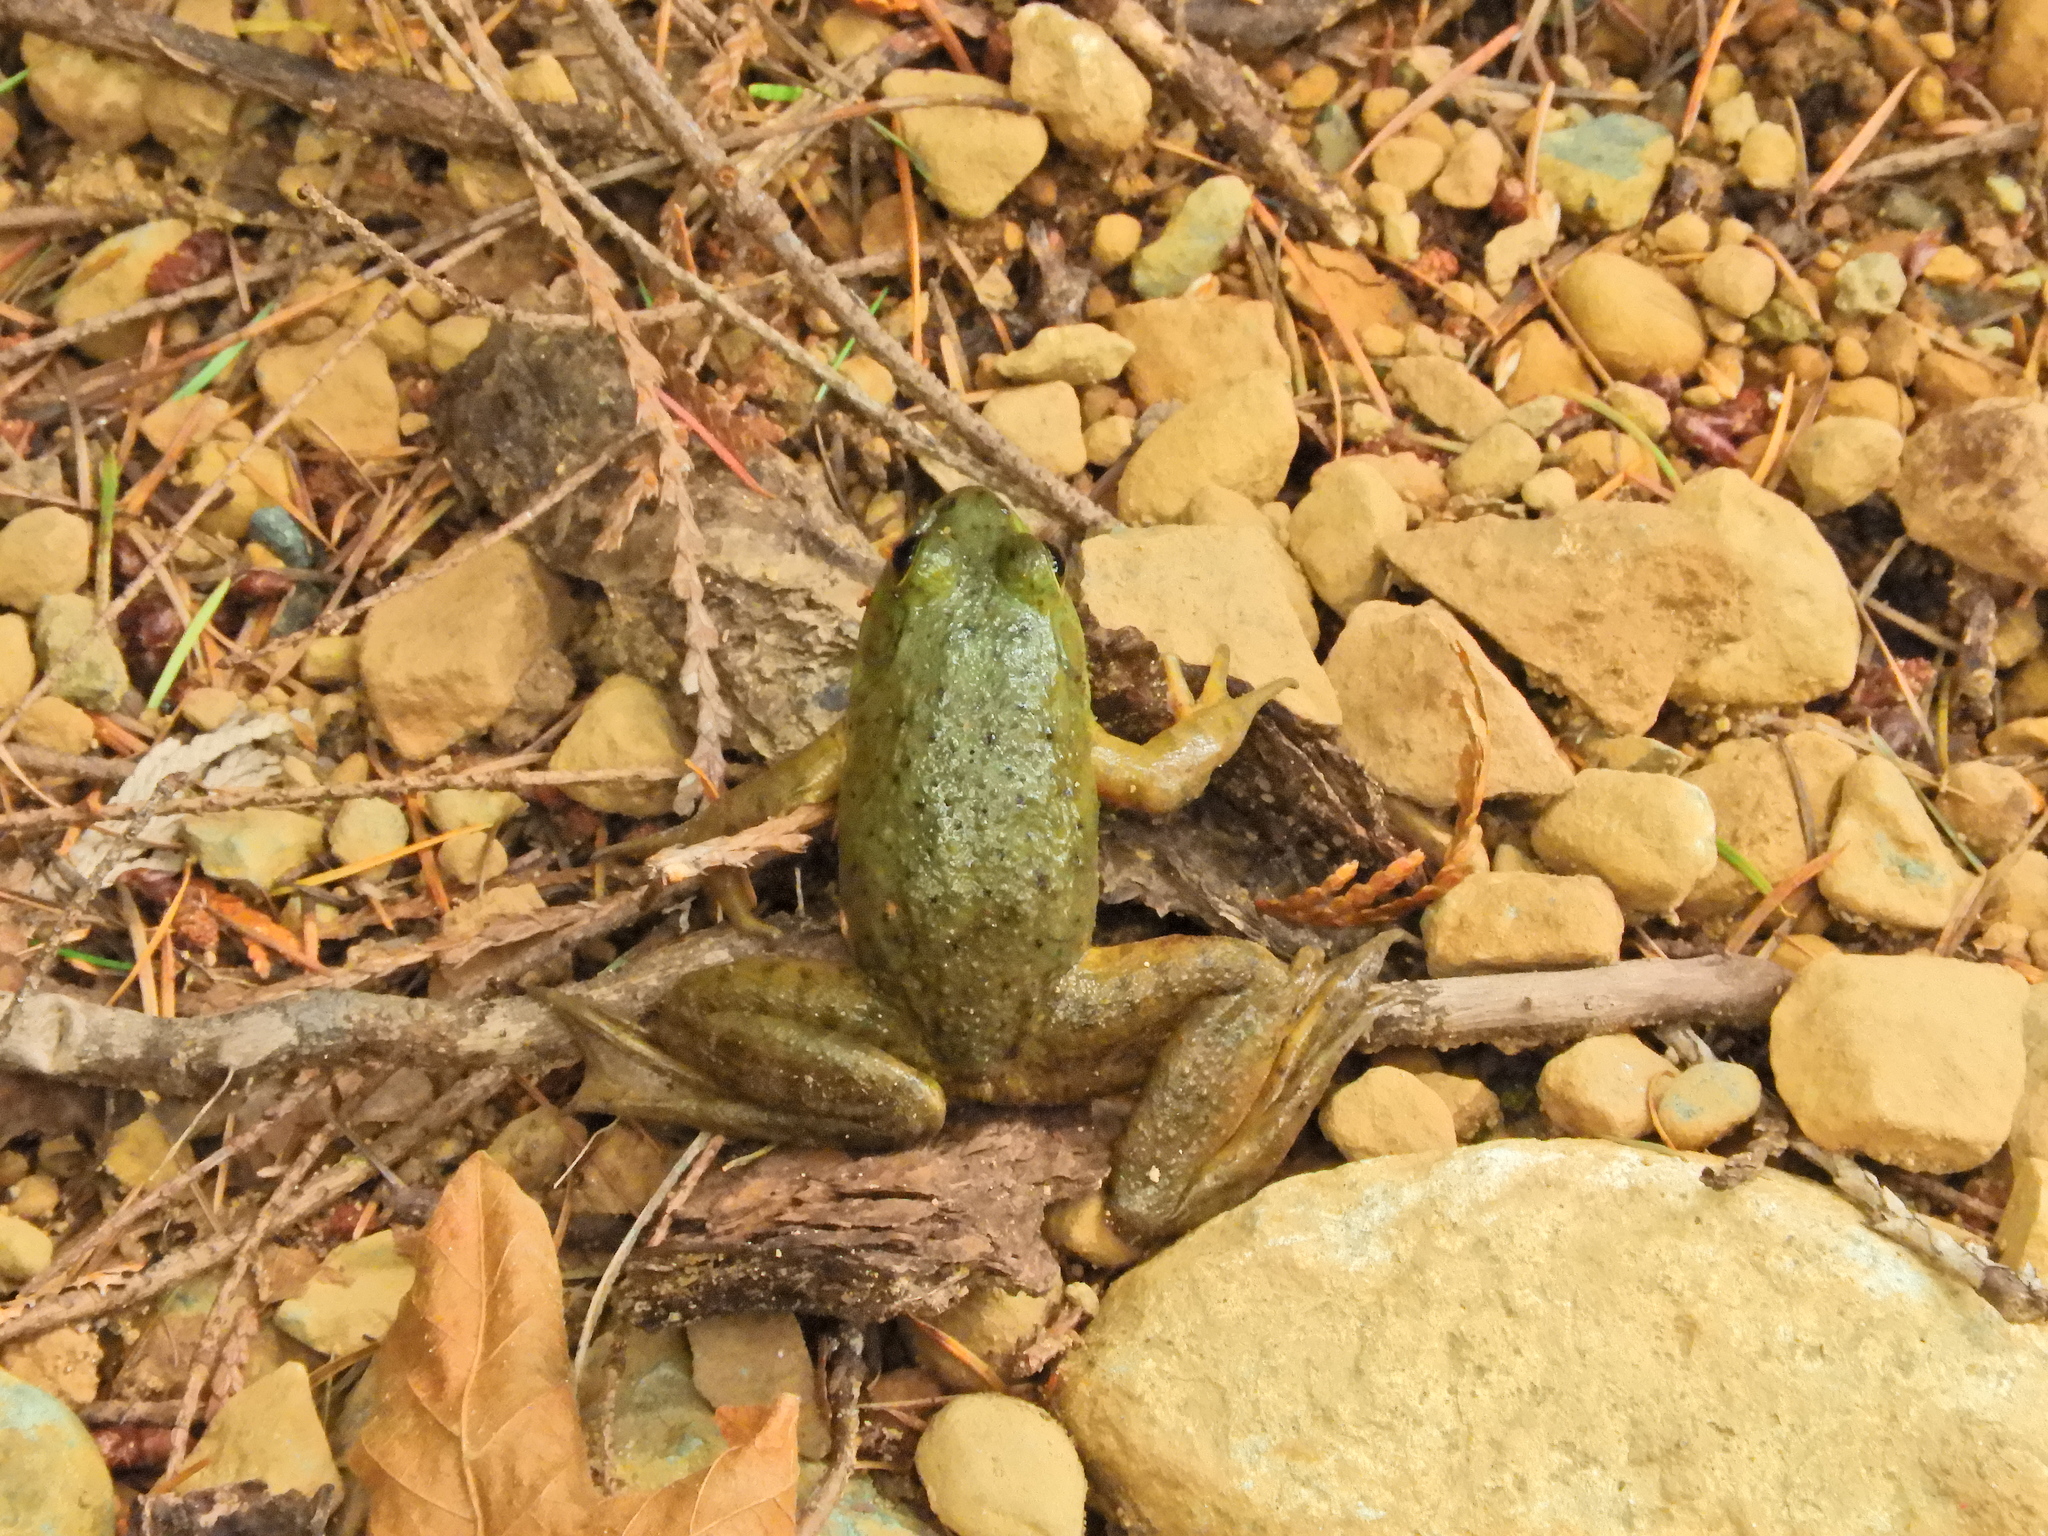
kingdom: Animalia
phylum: Chordata
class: Amphibia
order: Anura
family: Ranidae
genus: Lithobates
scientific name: Lithobates catesbeianus
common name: American bullfrog
